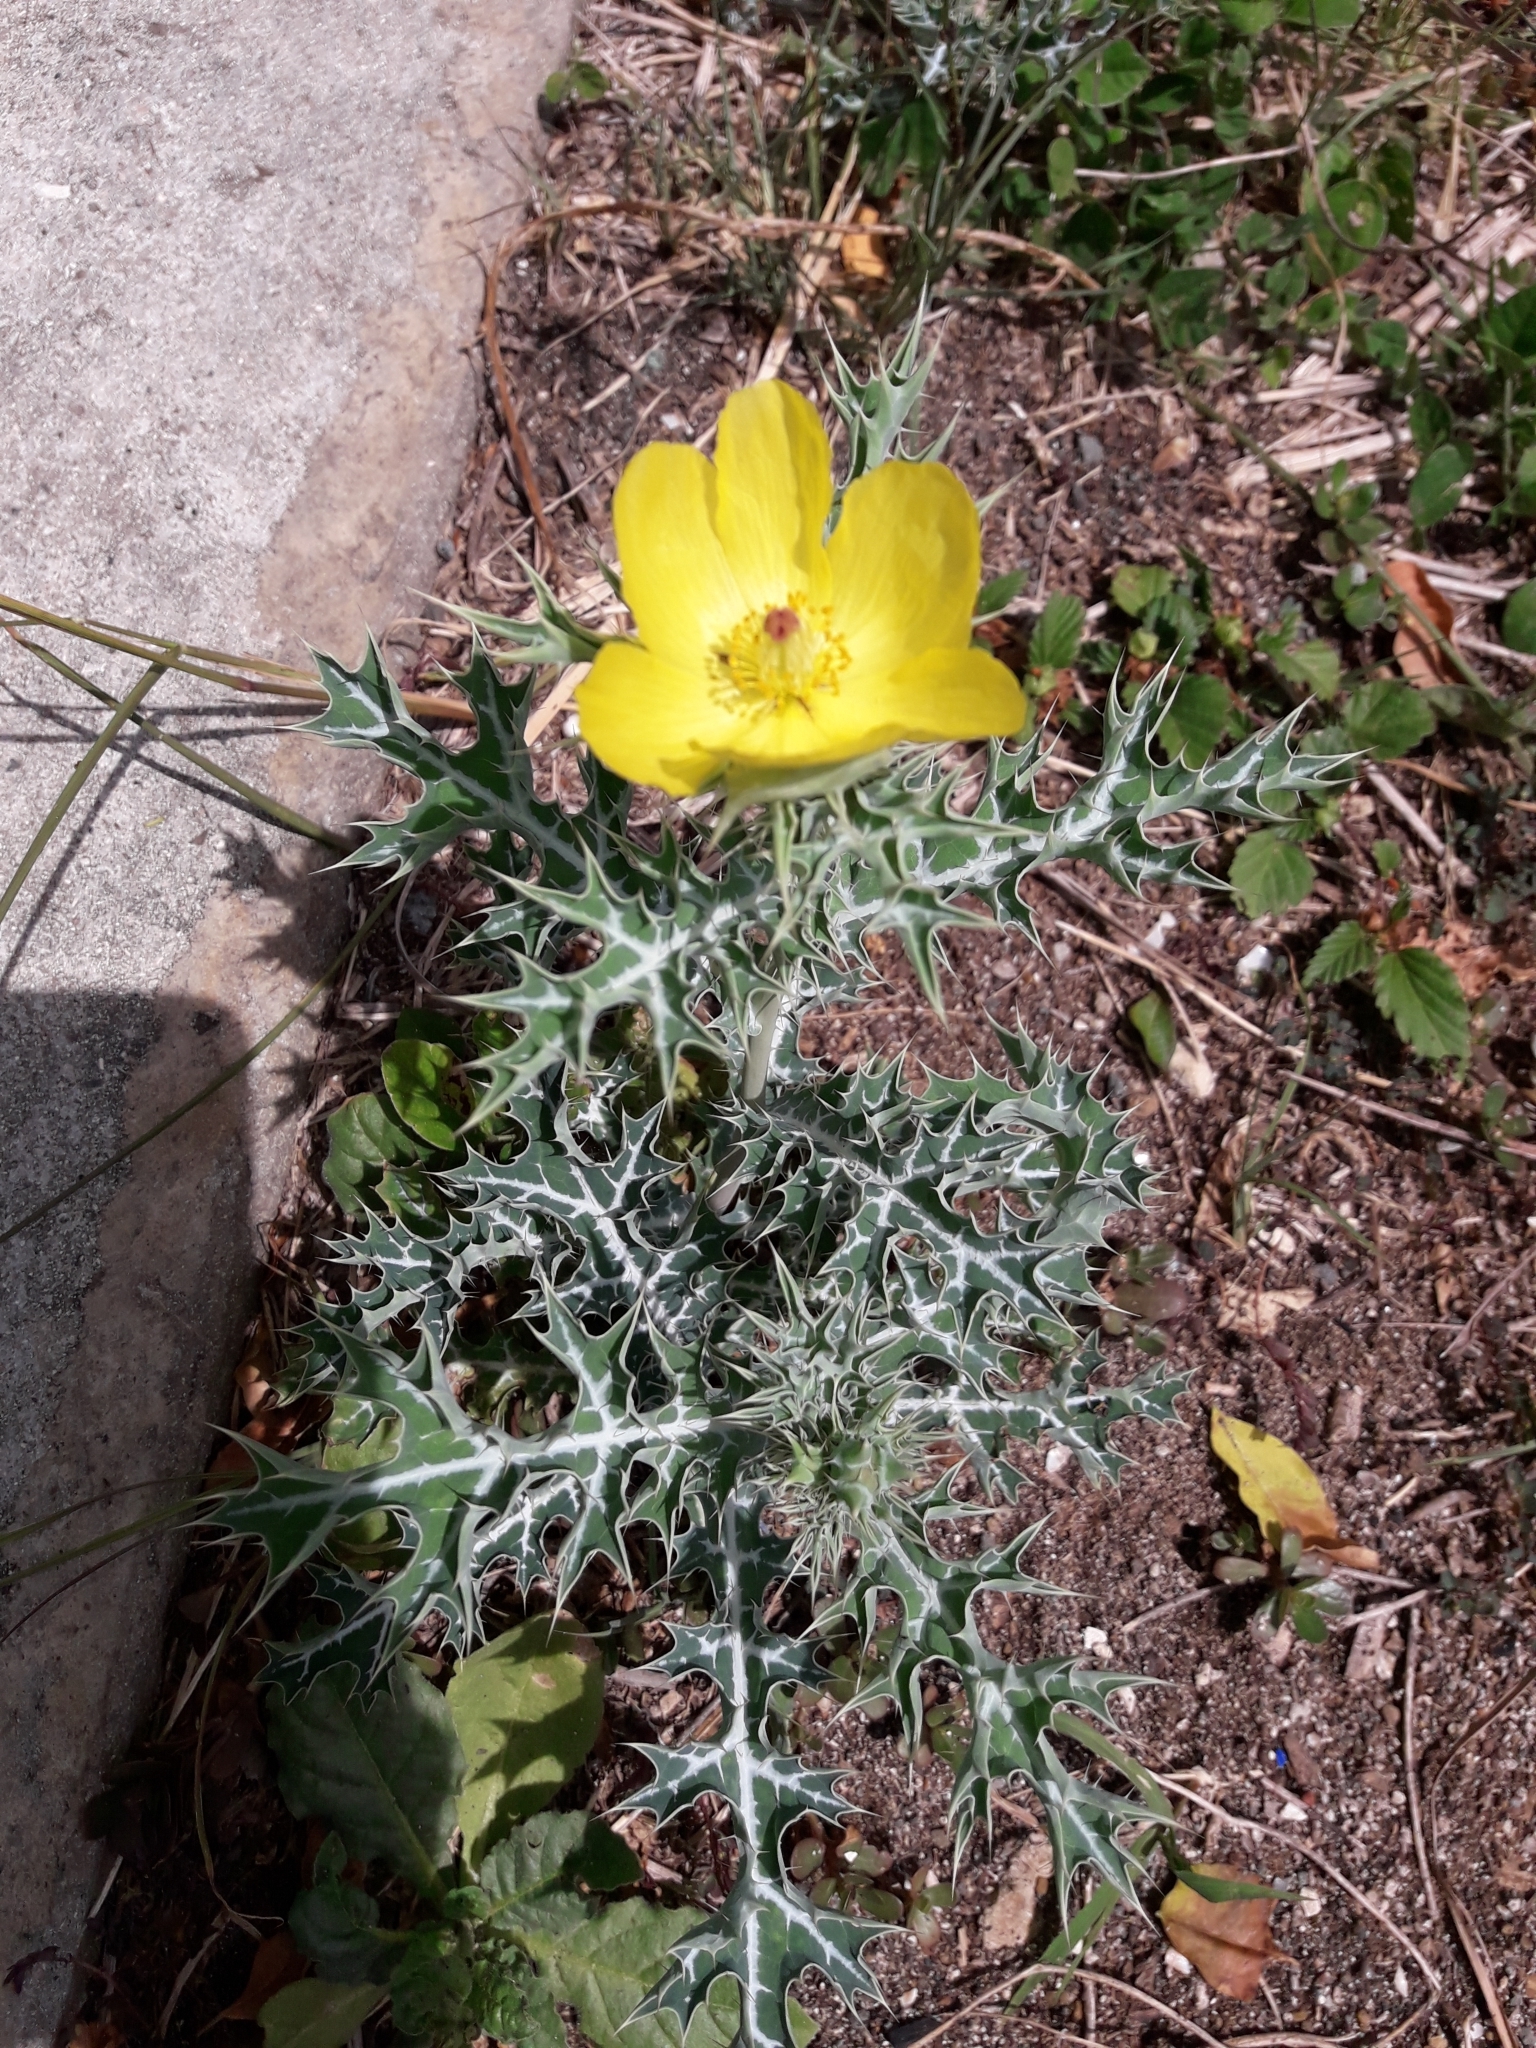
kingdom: Plantae
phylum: Tracheophyta
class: Magnoliopsida
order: Ranunculales
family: Papaveraceae
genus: Argemone
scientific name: Argemone mexicana
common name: Mexican poppy
